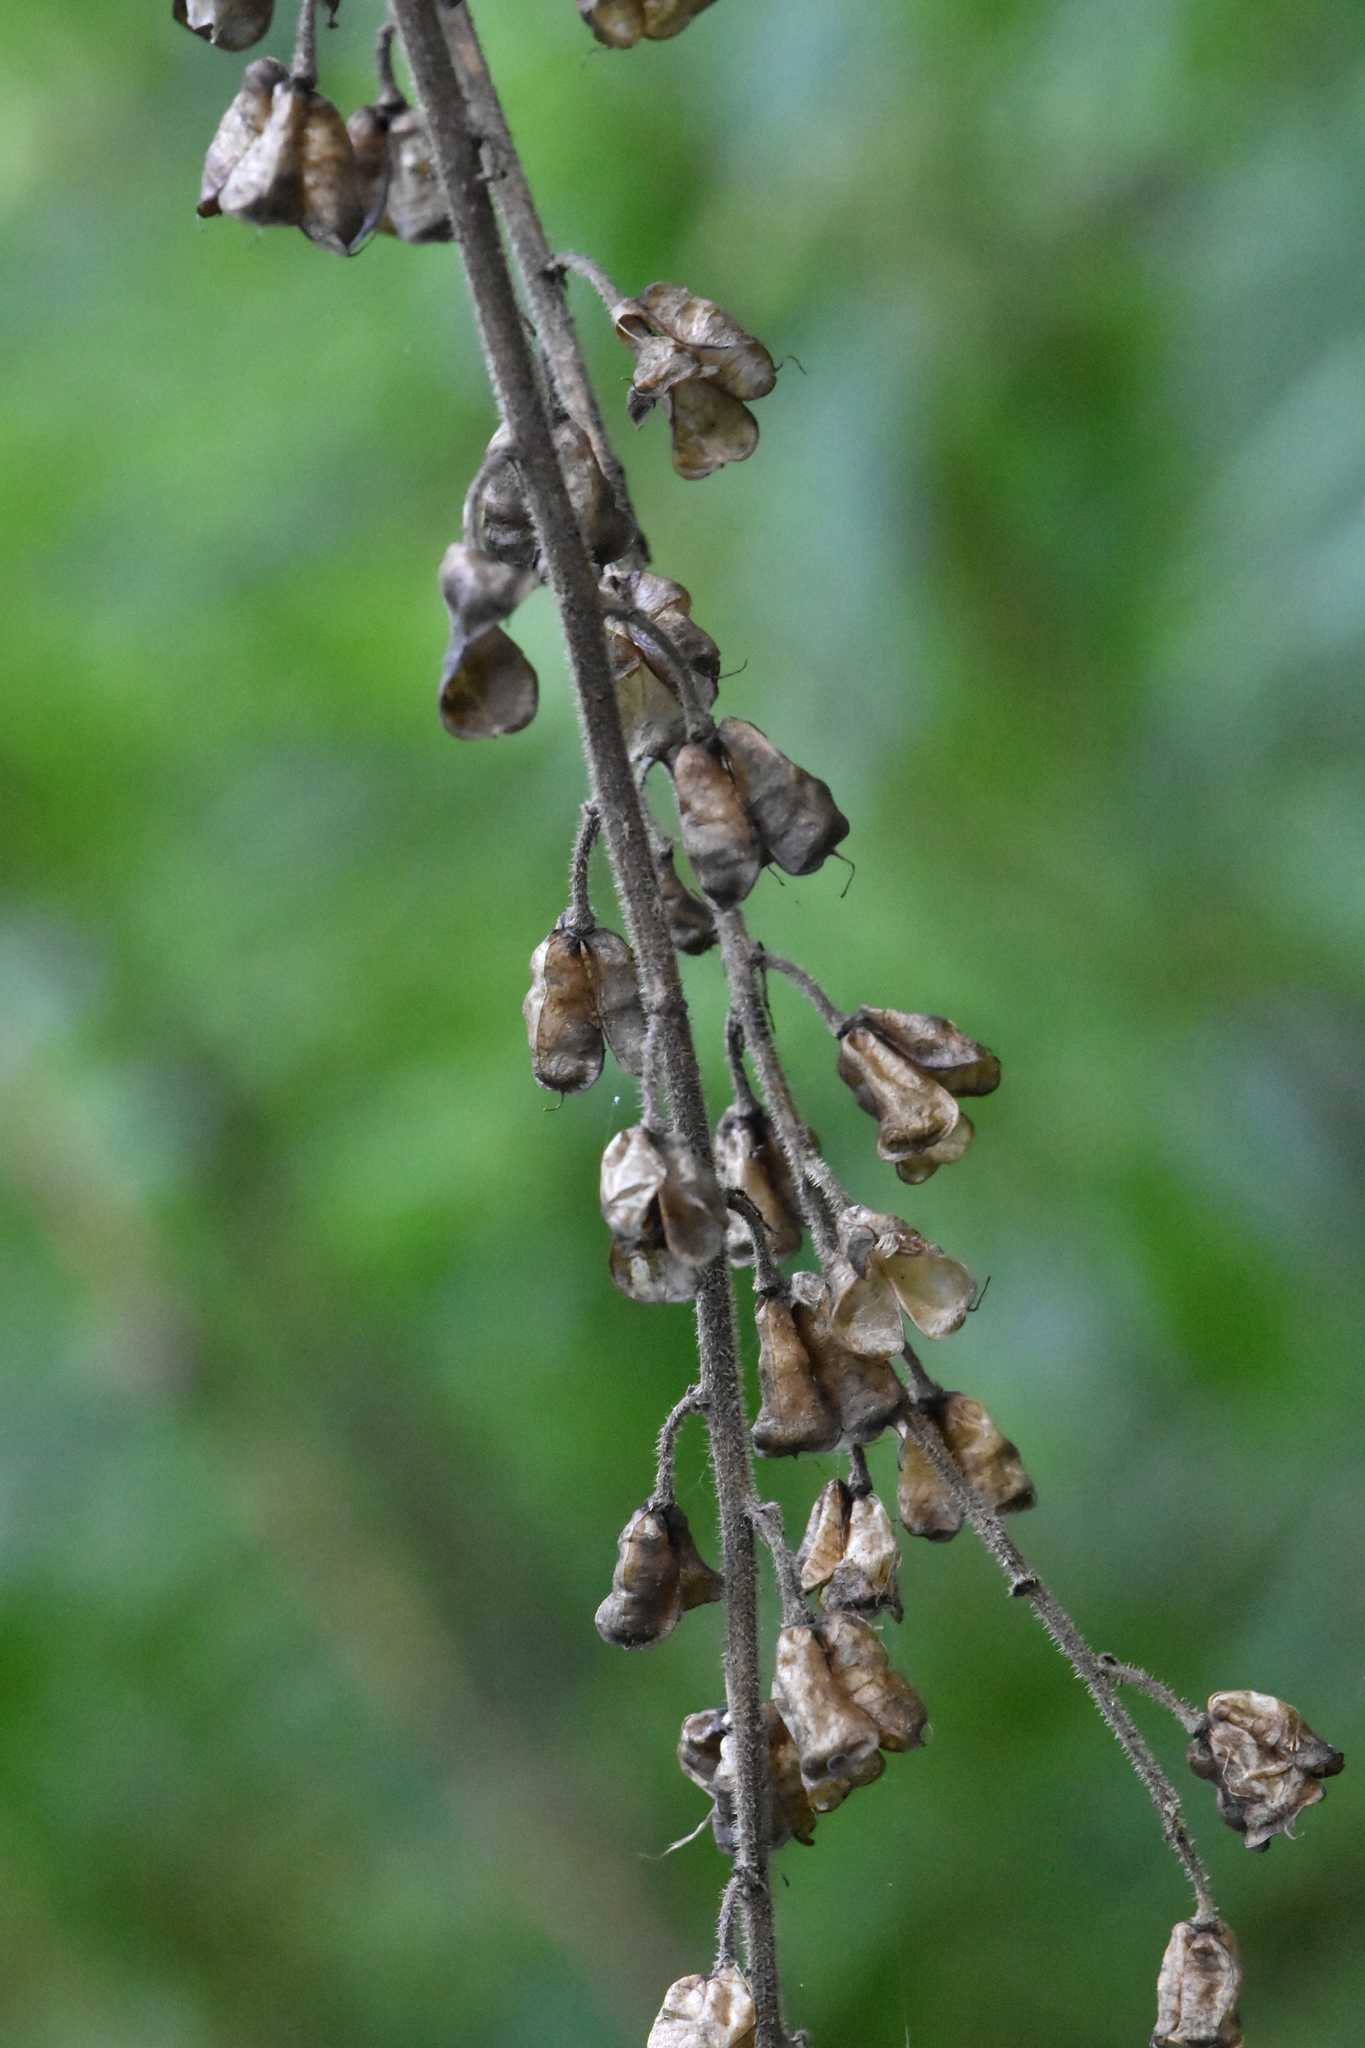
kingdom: Plantae
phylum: Tracheophyta
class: Magnoliopsida
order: Ranunculales
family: Ranunculaceae
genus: Aconitum
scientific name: Aconitum septentrionale
